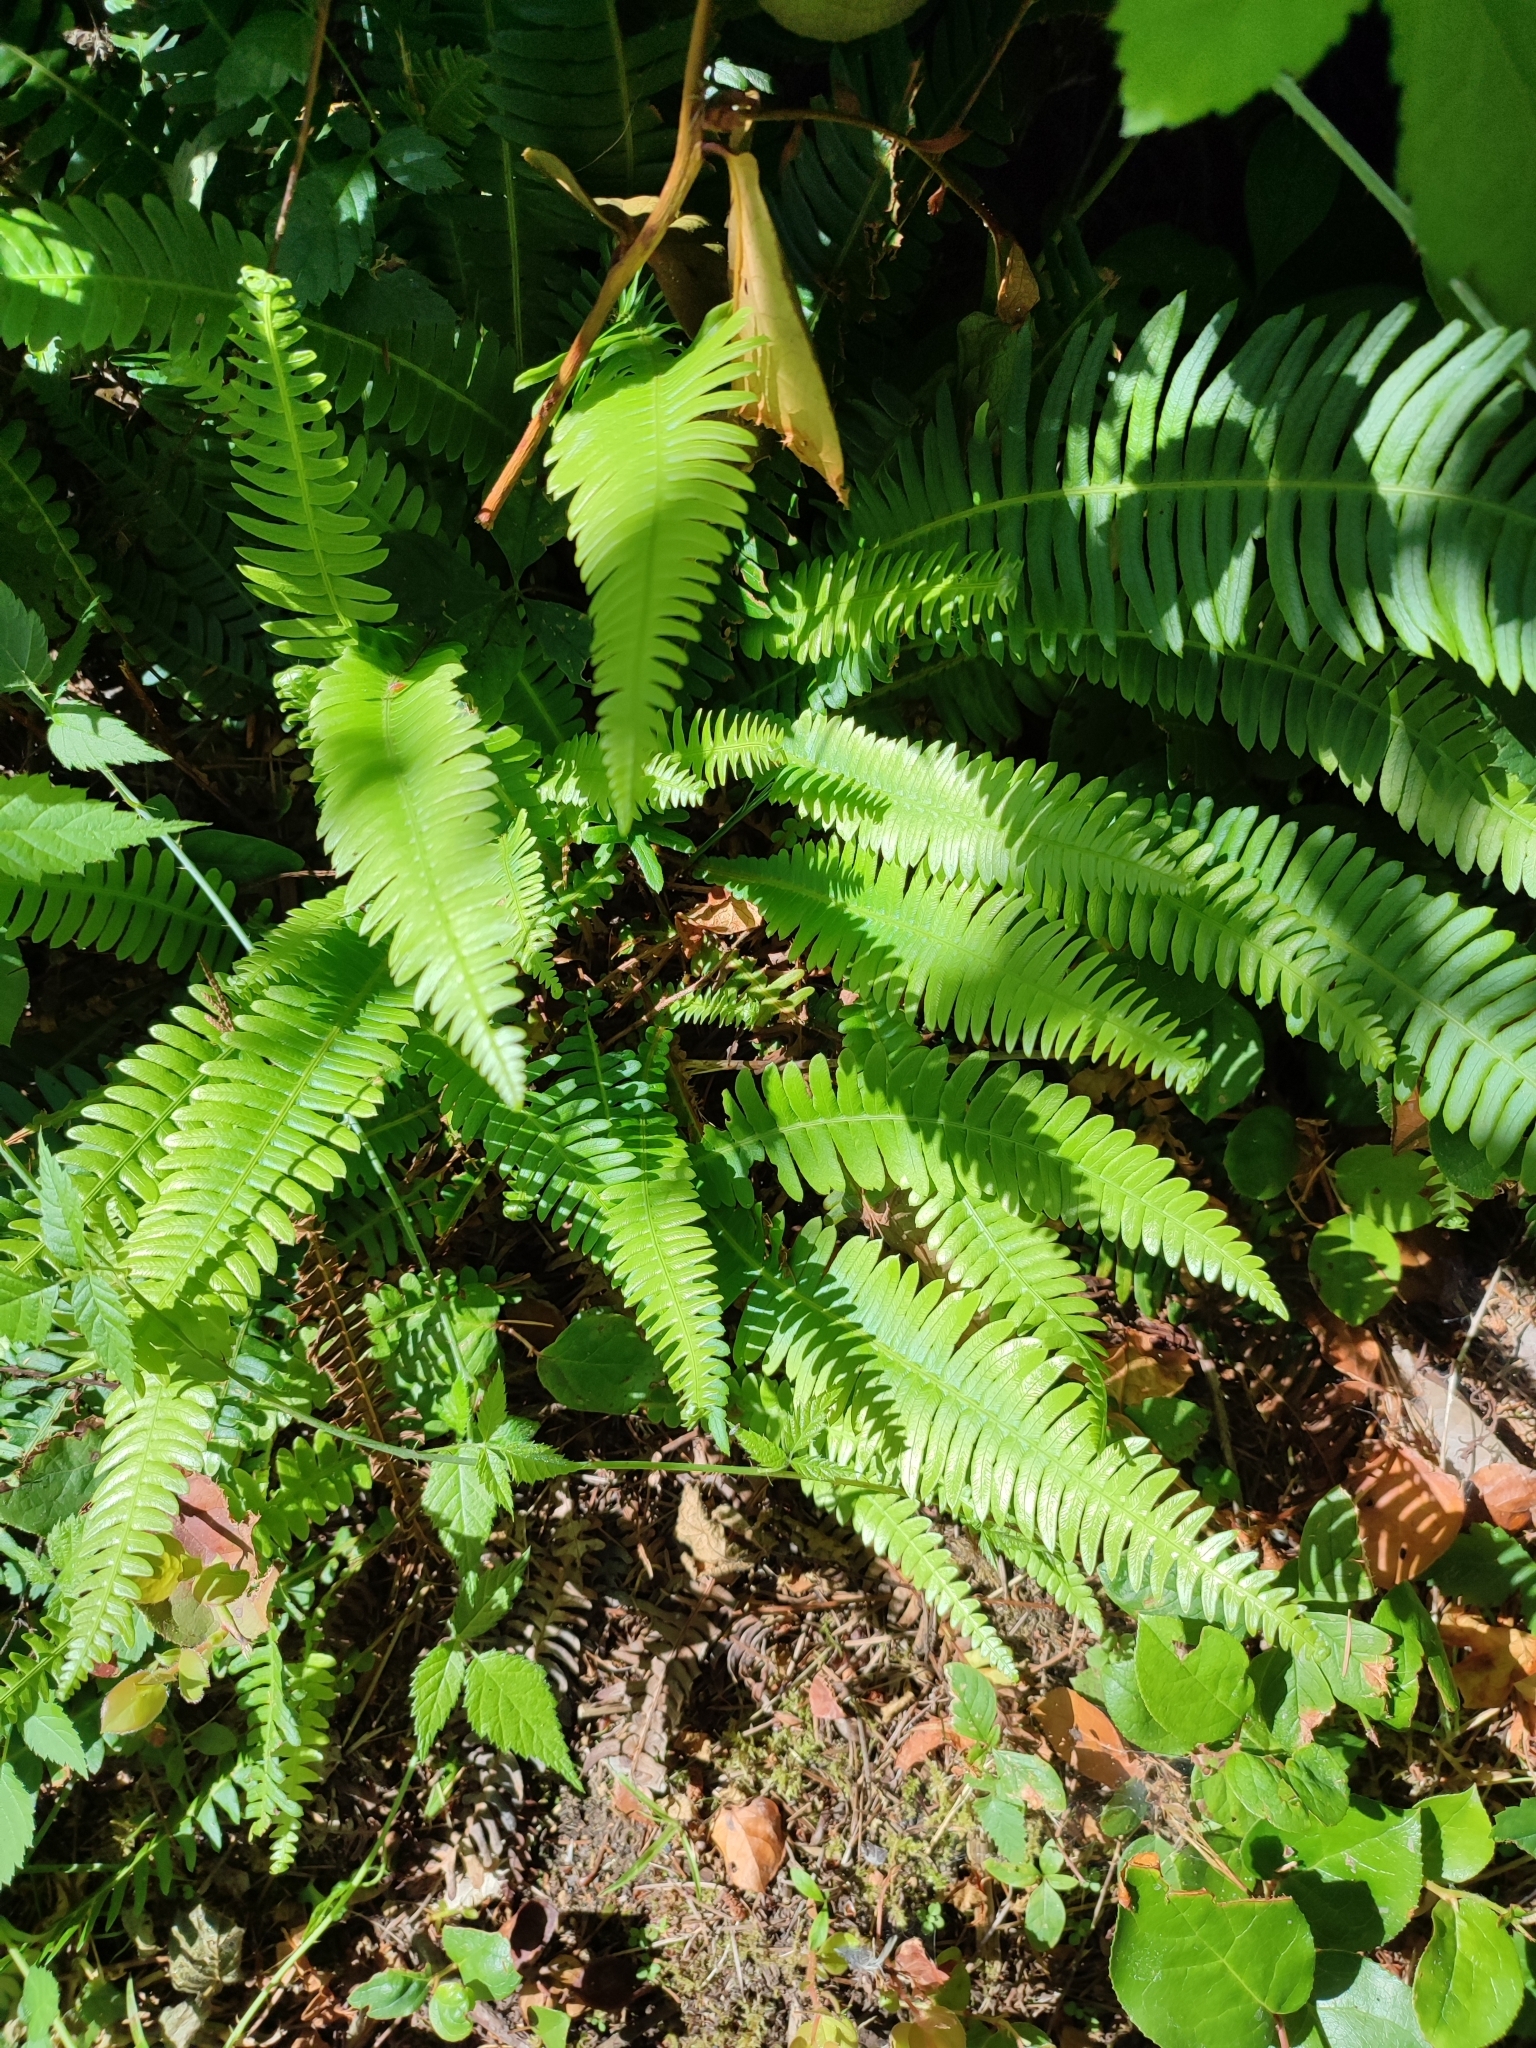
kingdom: Plantae
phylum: Tracheophyta
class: Polypodiopsida
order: Polypodiales
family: Blechnaceae
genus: Struthiopteris
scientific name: Struthiopteris spicant
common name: Deer fern
